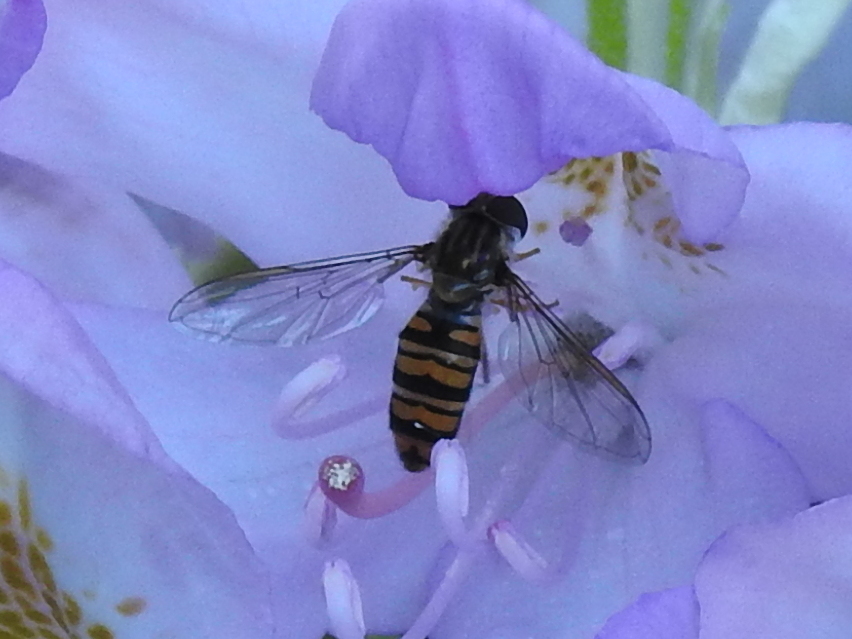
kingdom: Animalia
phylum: Arthropoda
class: Insecta
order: Diptera
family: Syrphidae
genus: Episyrphus
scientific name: Episyrphus balteatus
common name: Marmalade hoverfly
